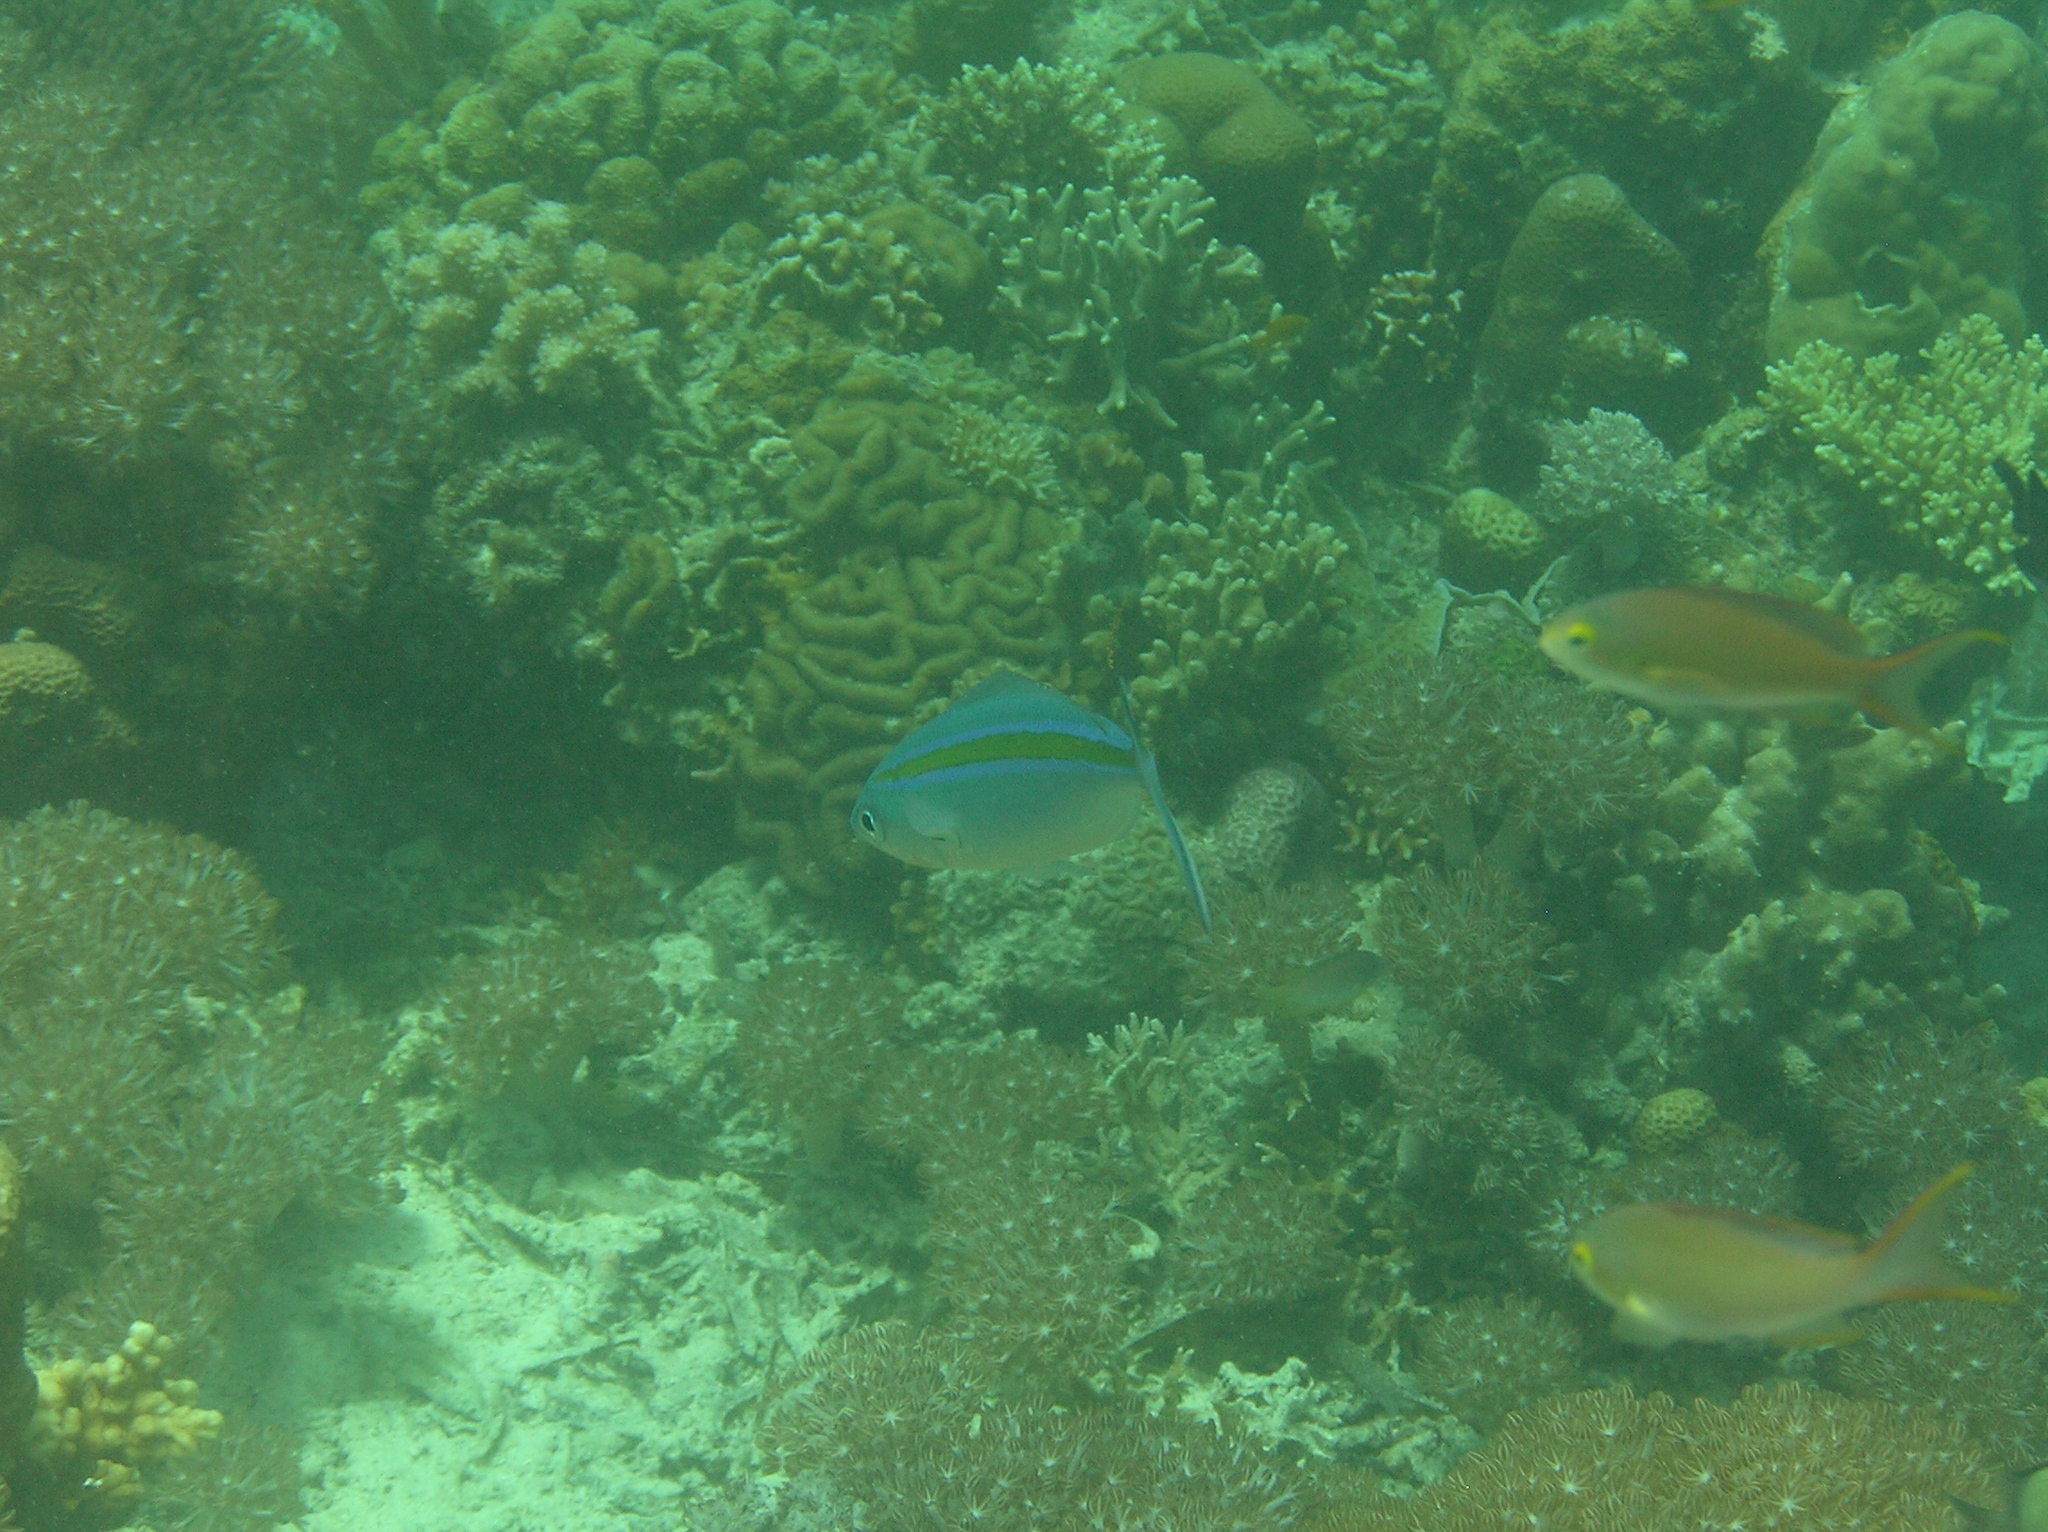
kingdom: Animalia
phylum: Chordata
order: Perciformes
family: Caesionidae
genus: Caesio
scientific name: Caesio caerulaurea
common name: Blue and gold fusilier
